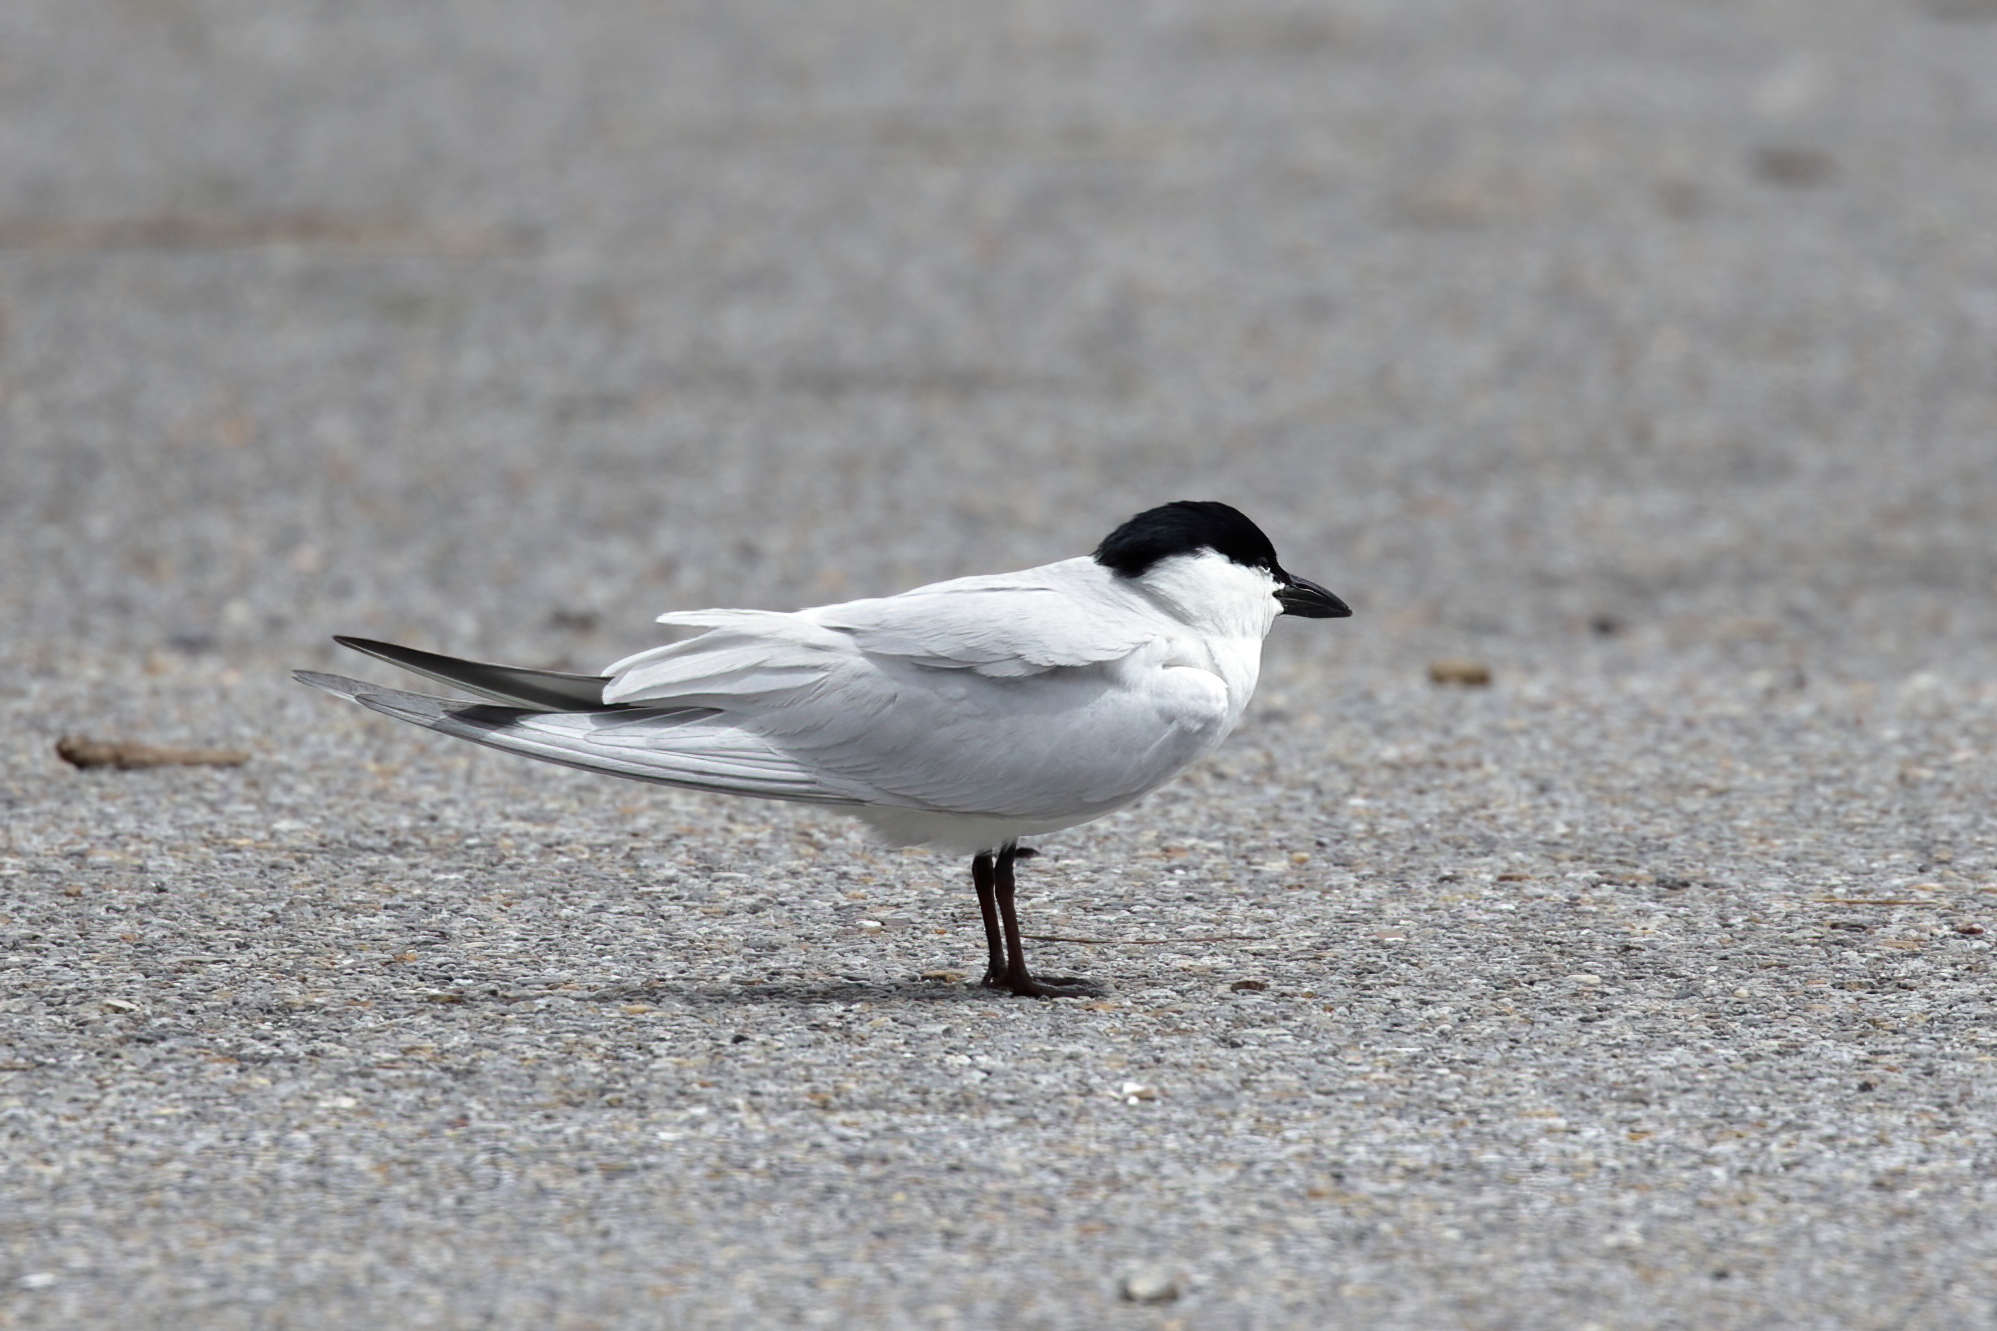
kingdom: Animalia
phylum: Chordata
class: Aves
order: Charadriiformes
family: Laridae
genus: Gelochelidon
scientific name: Gelochelidon nilotica
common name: Gull-billed tern
